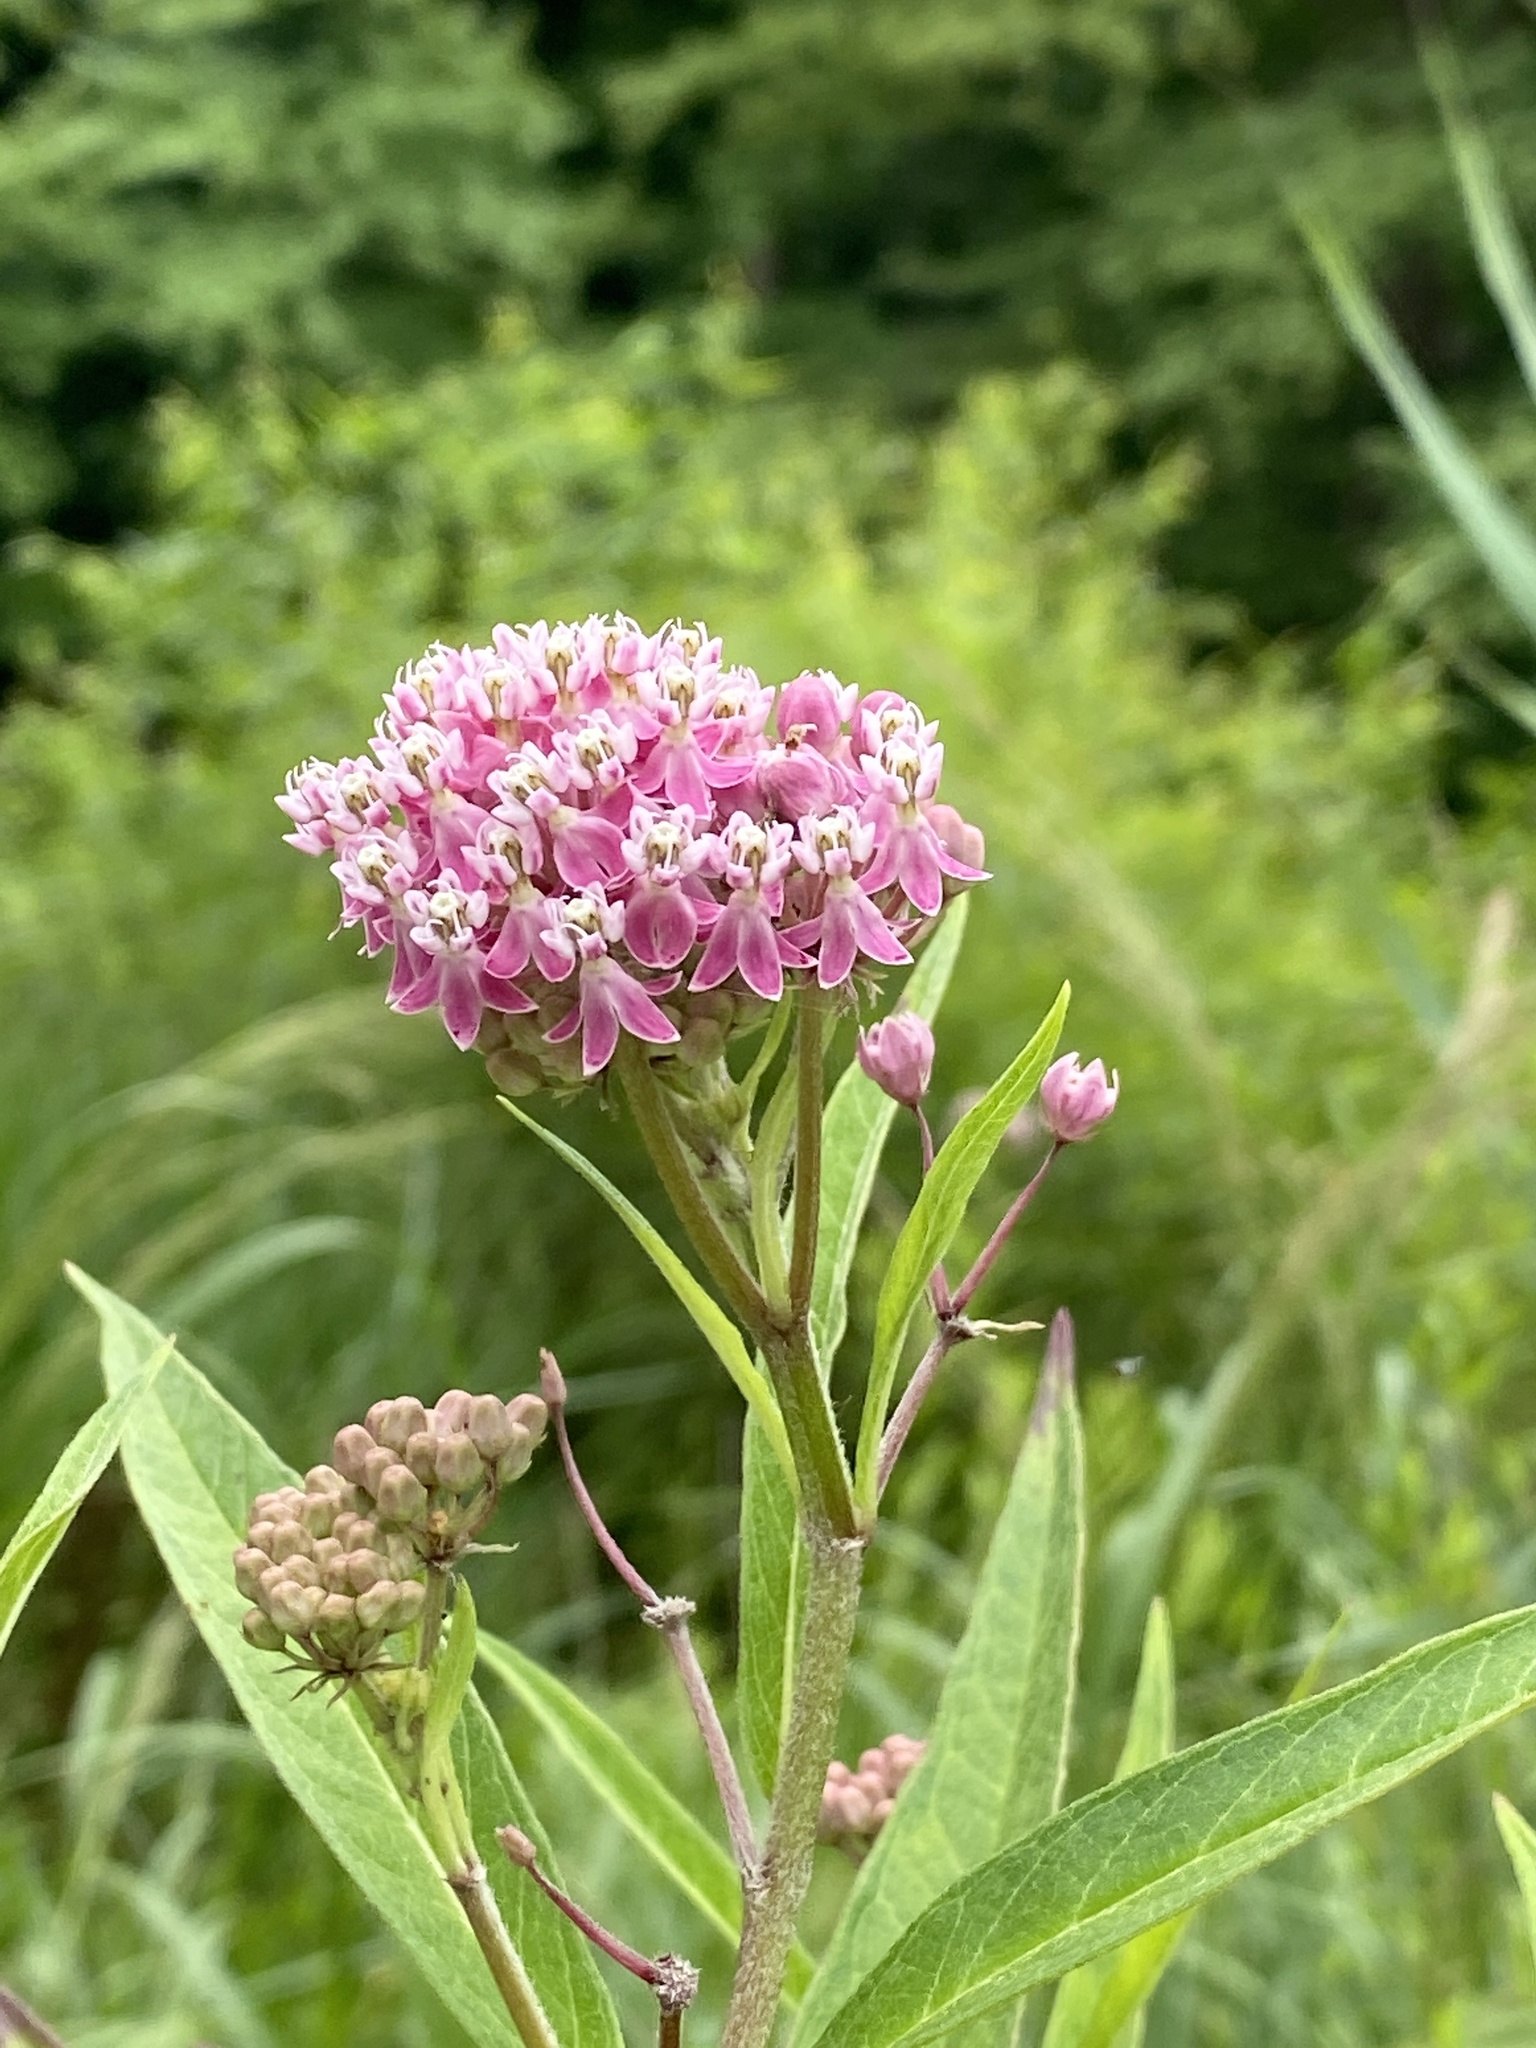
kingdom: Plantae
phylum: Tracheophyta
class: Magnoliopsida
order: Gentianales
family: Apocynaceae
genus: Asclepias
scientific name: Asclepias incarnata
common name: Swamp milkweed
